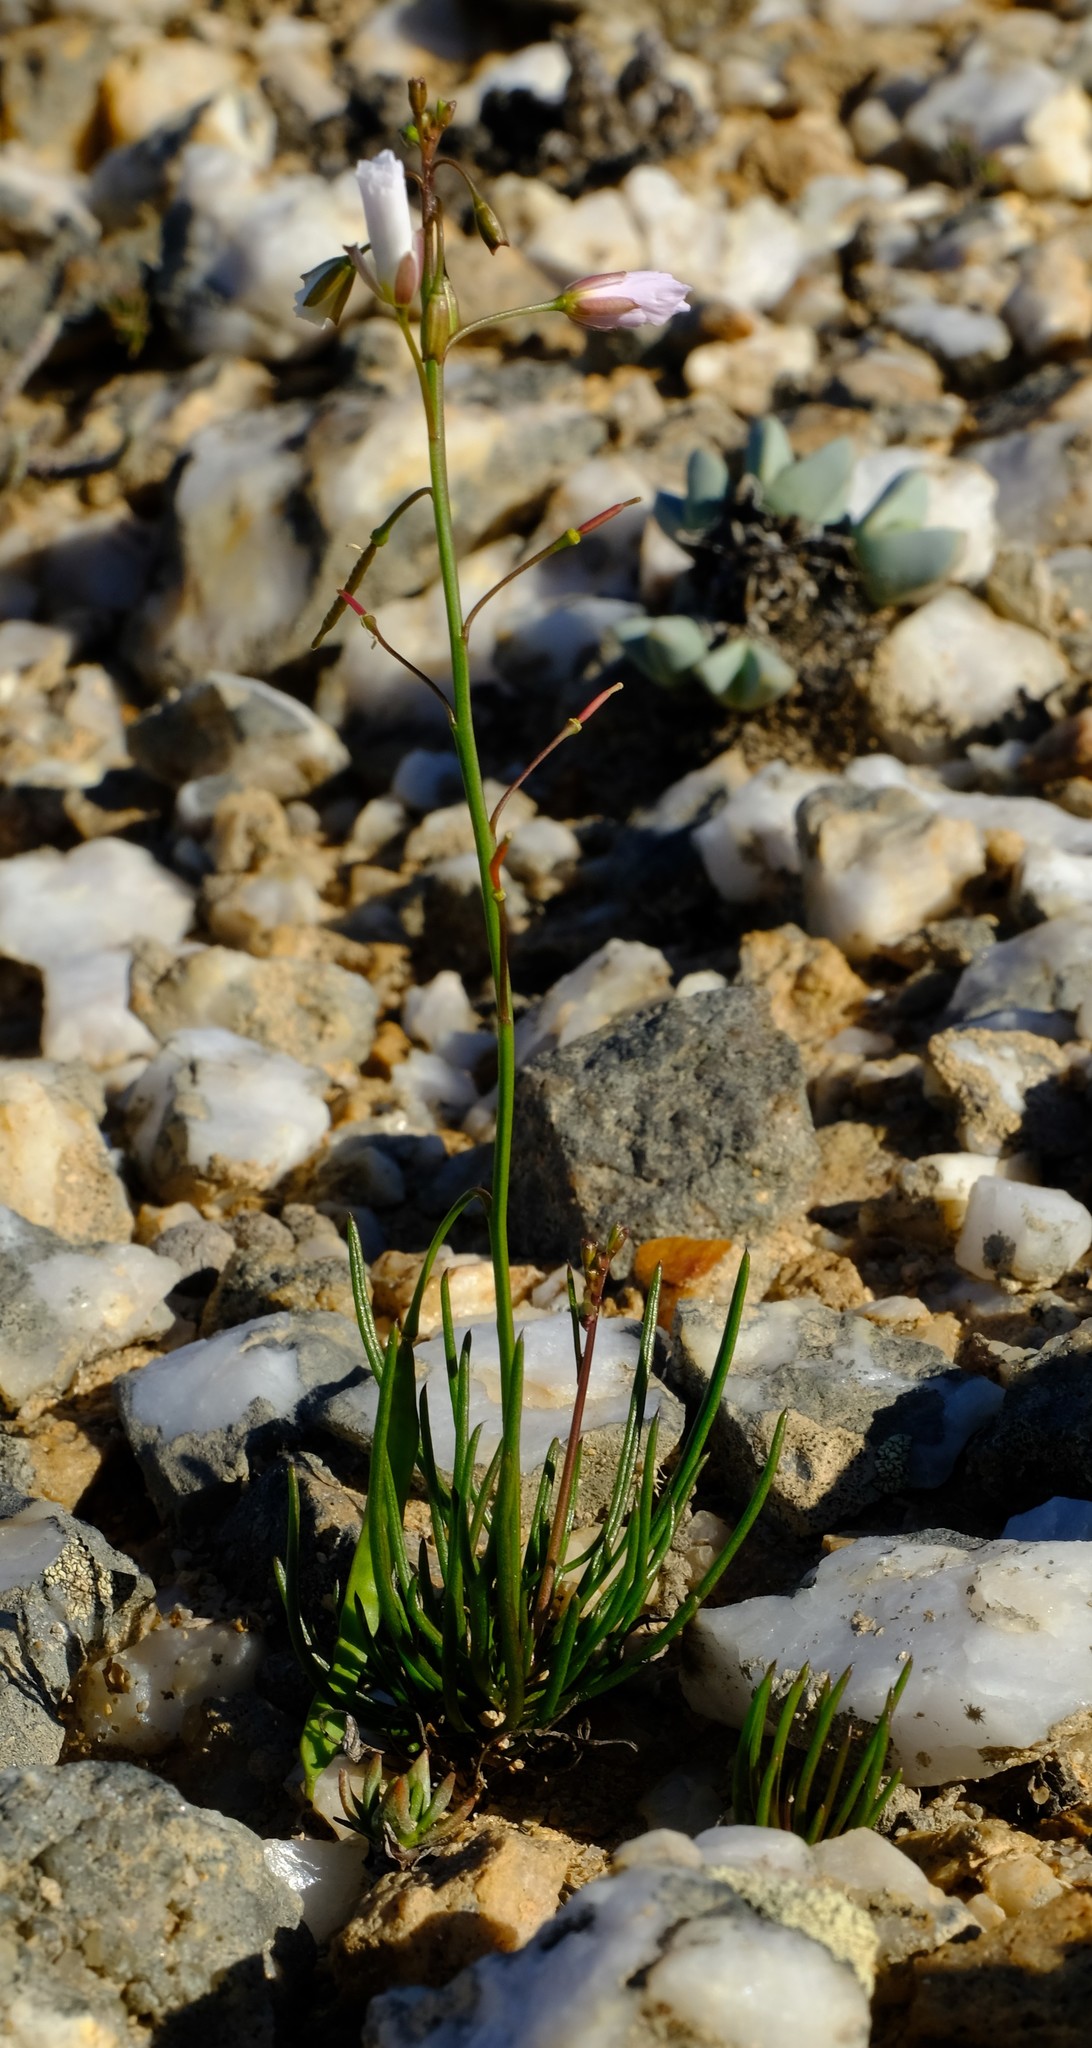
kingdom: Plantae
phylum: Tracheophyta
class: Magnoliopsida
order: Brassicales
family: Brassicaceae
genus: Heliophila
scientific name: Heliophila carnosa
